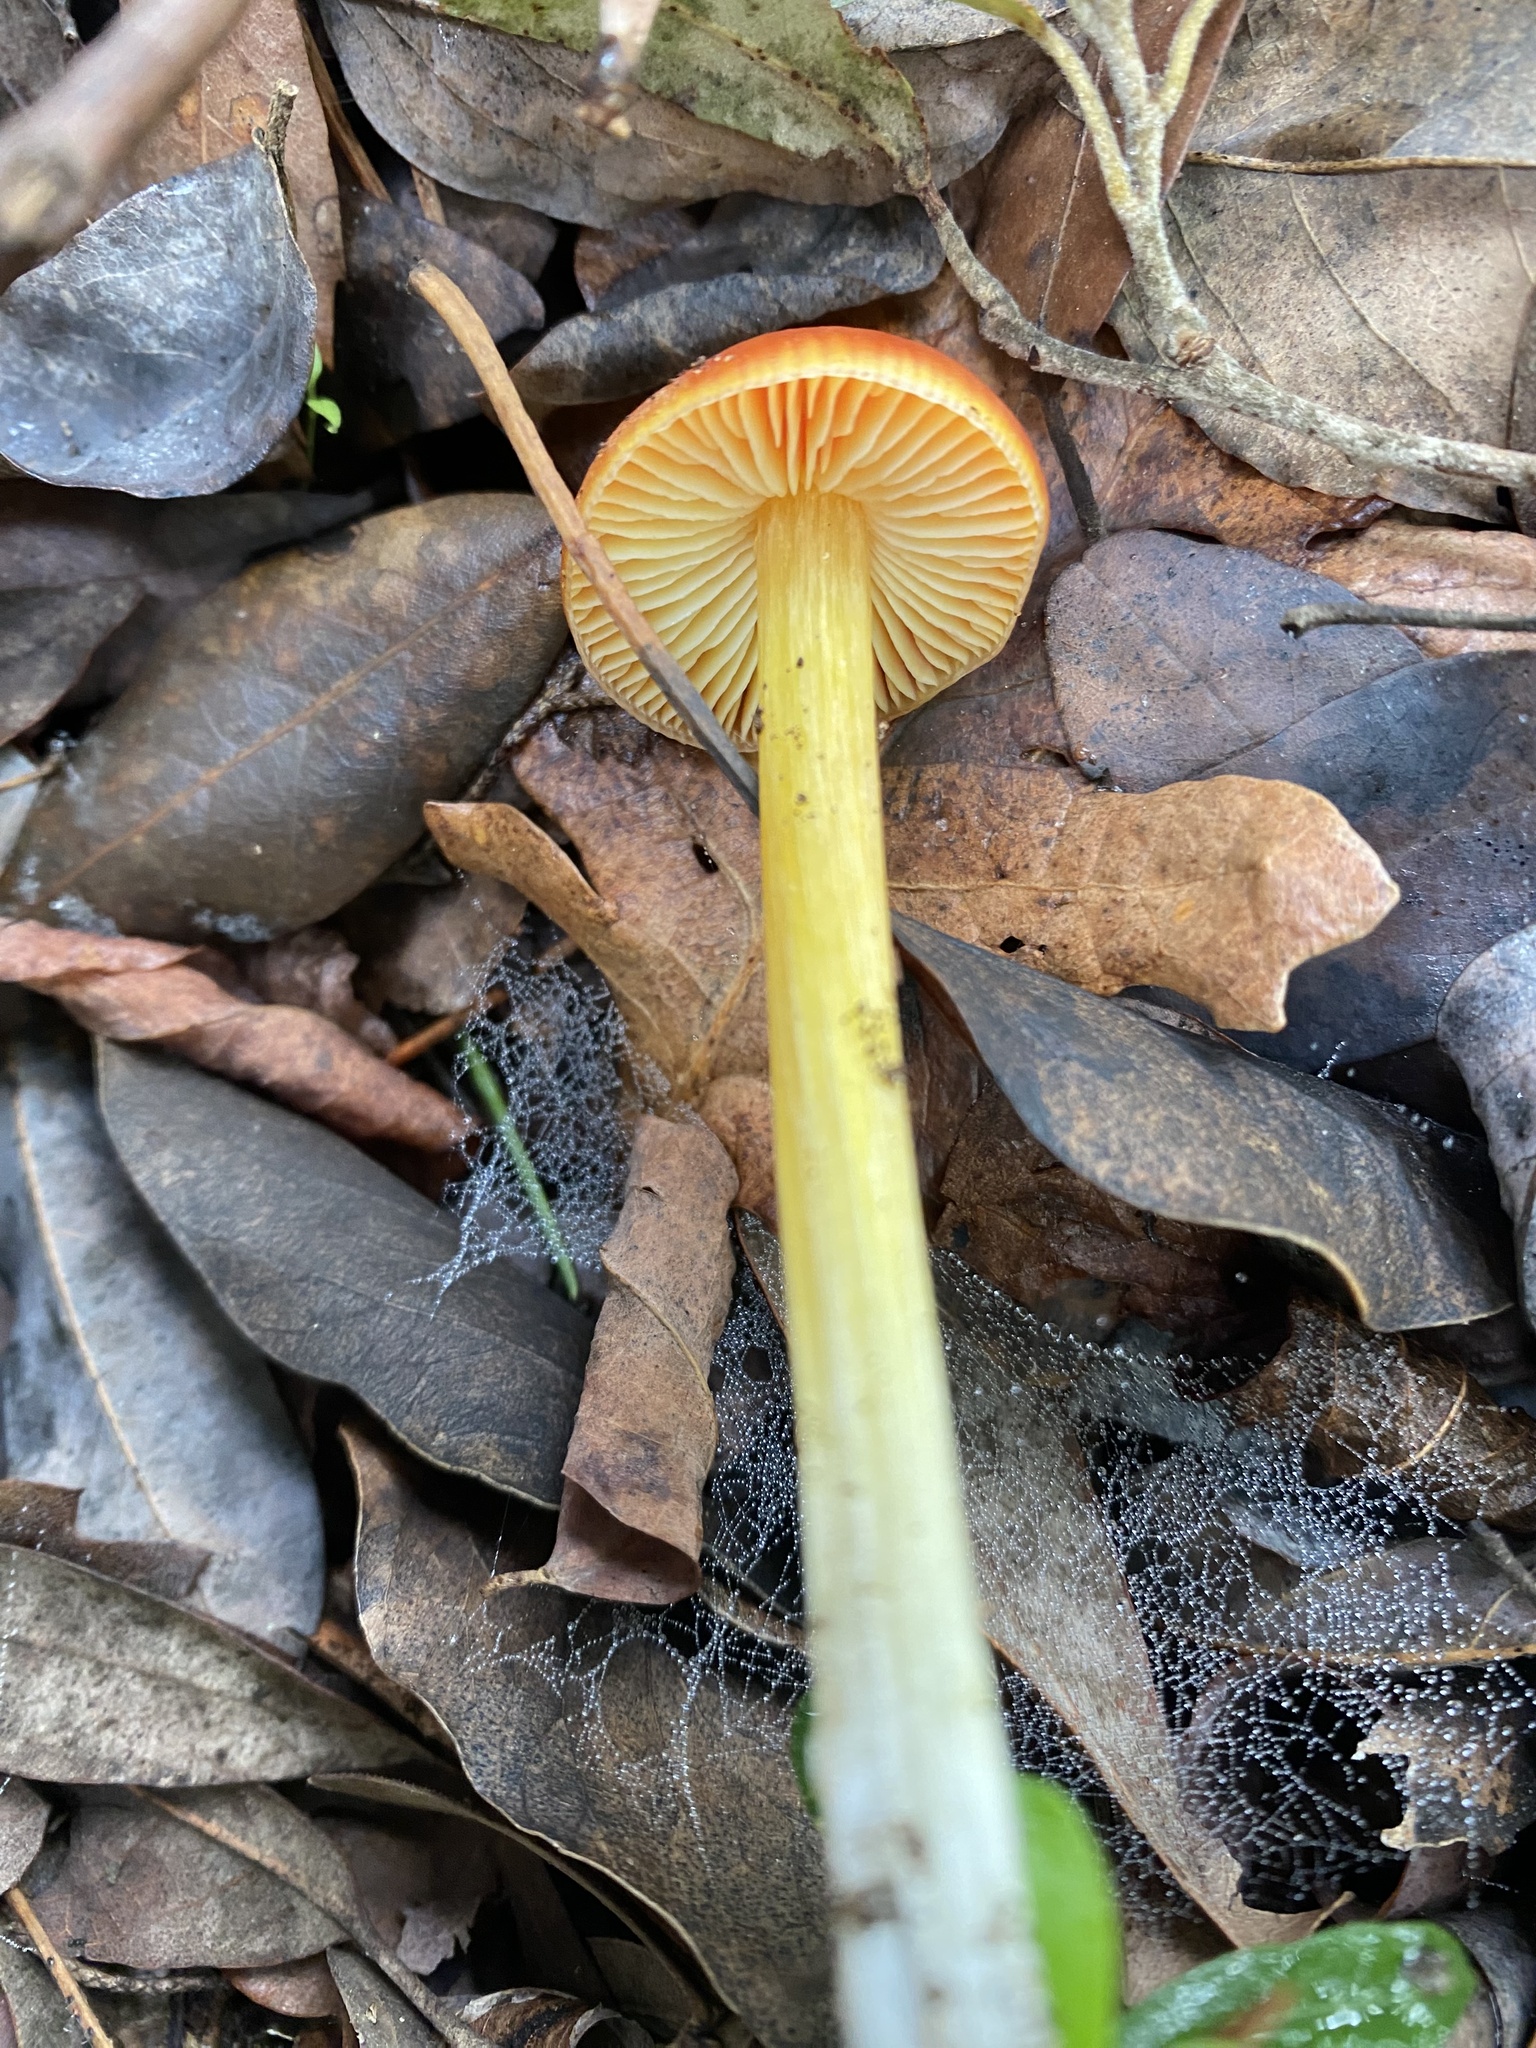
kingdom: Fungi
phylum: Basidiomycota
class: Agaricomycetes
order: Agaricales
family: Hygrophoraceae
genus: Hygrocybe
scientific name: Hygrocybe acutoconica
